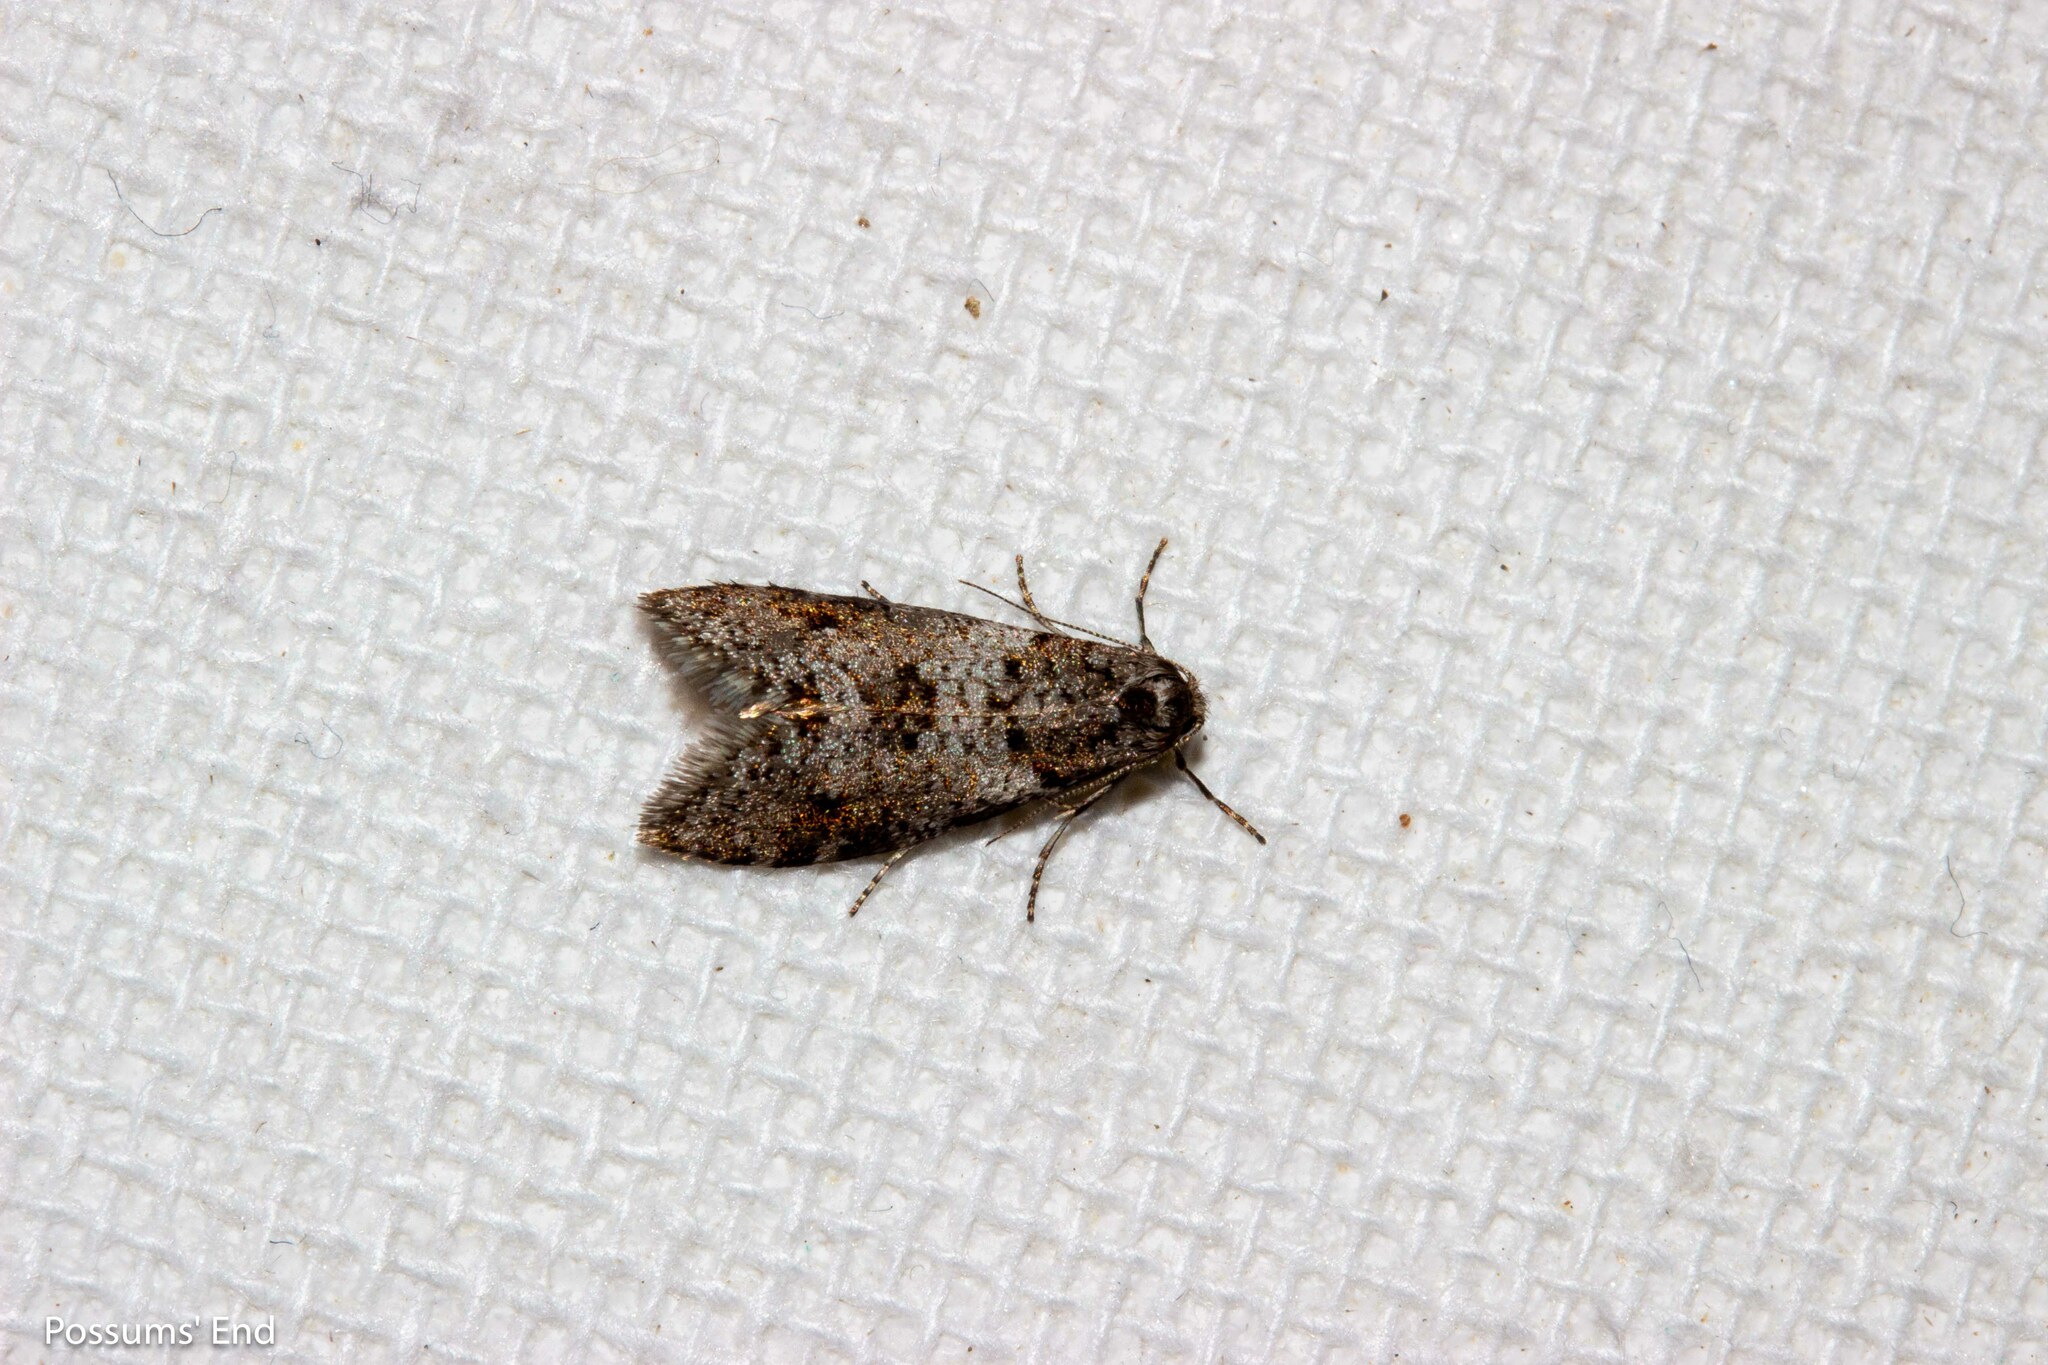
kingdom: Animalia
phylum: Arthropoda
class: Insecta
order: Lepidoptera
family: Psychidae
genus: Lepidoscia
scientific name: Lepidoscia heliochares
